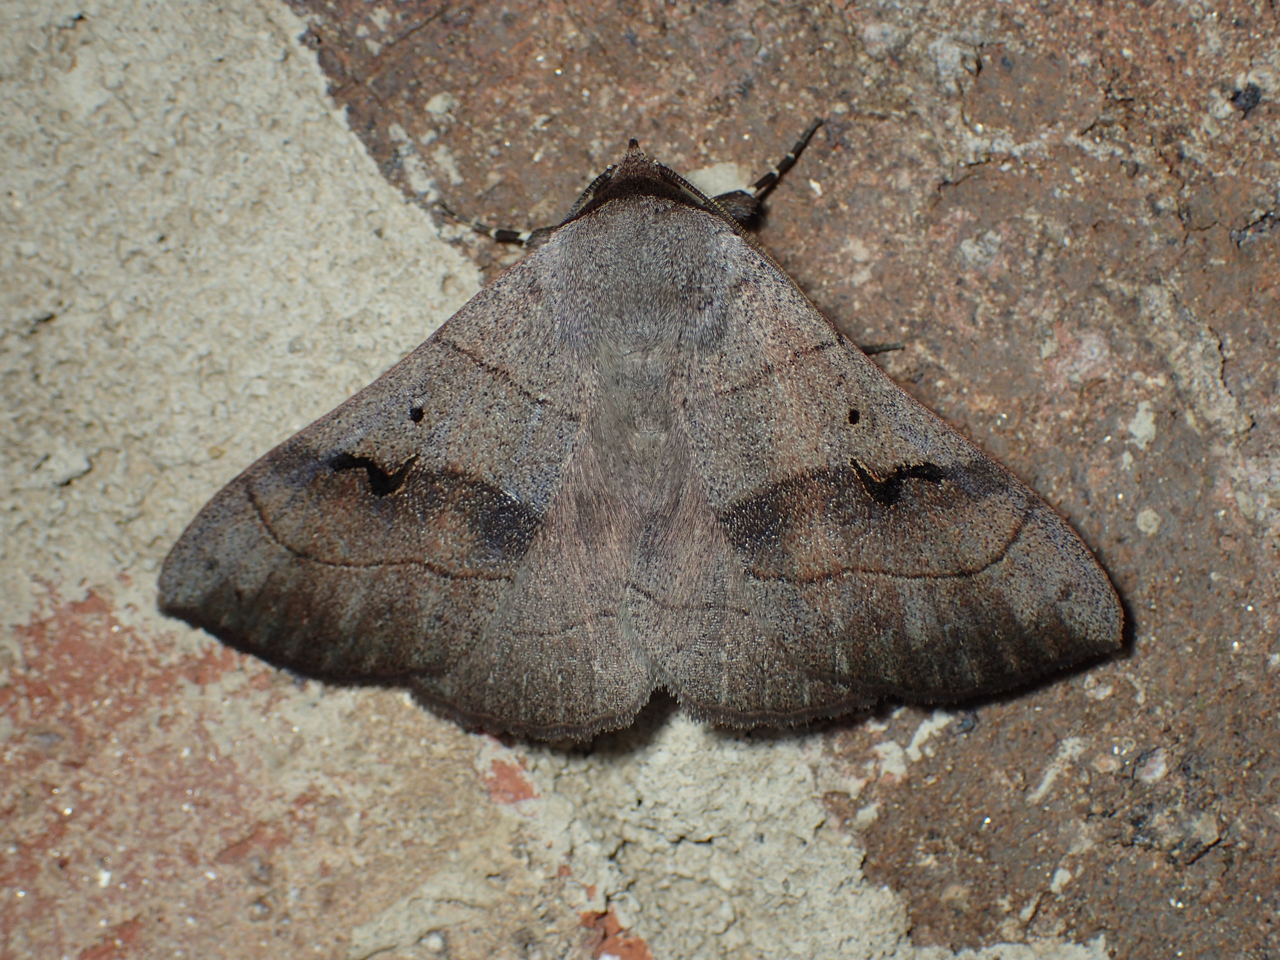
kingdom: Animalia
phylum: Arthropoda
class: Insecta
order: Lepidoptera
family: Erebidae
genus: Panopoda
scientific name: Panopoda carneicosta
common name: Brown panopoda moth
